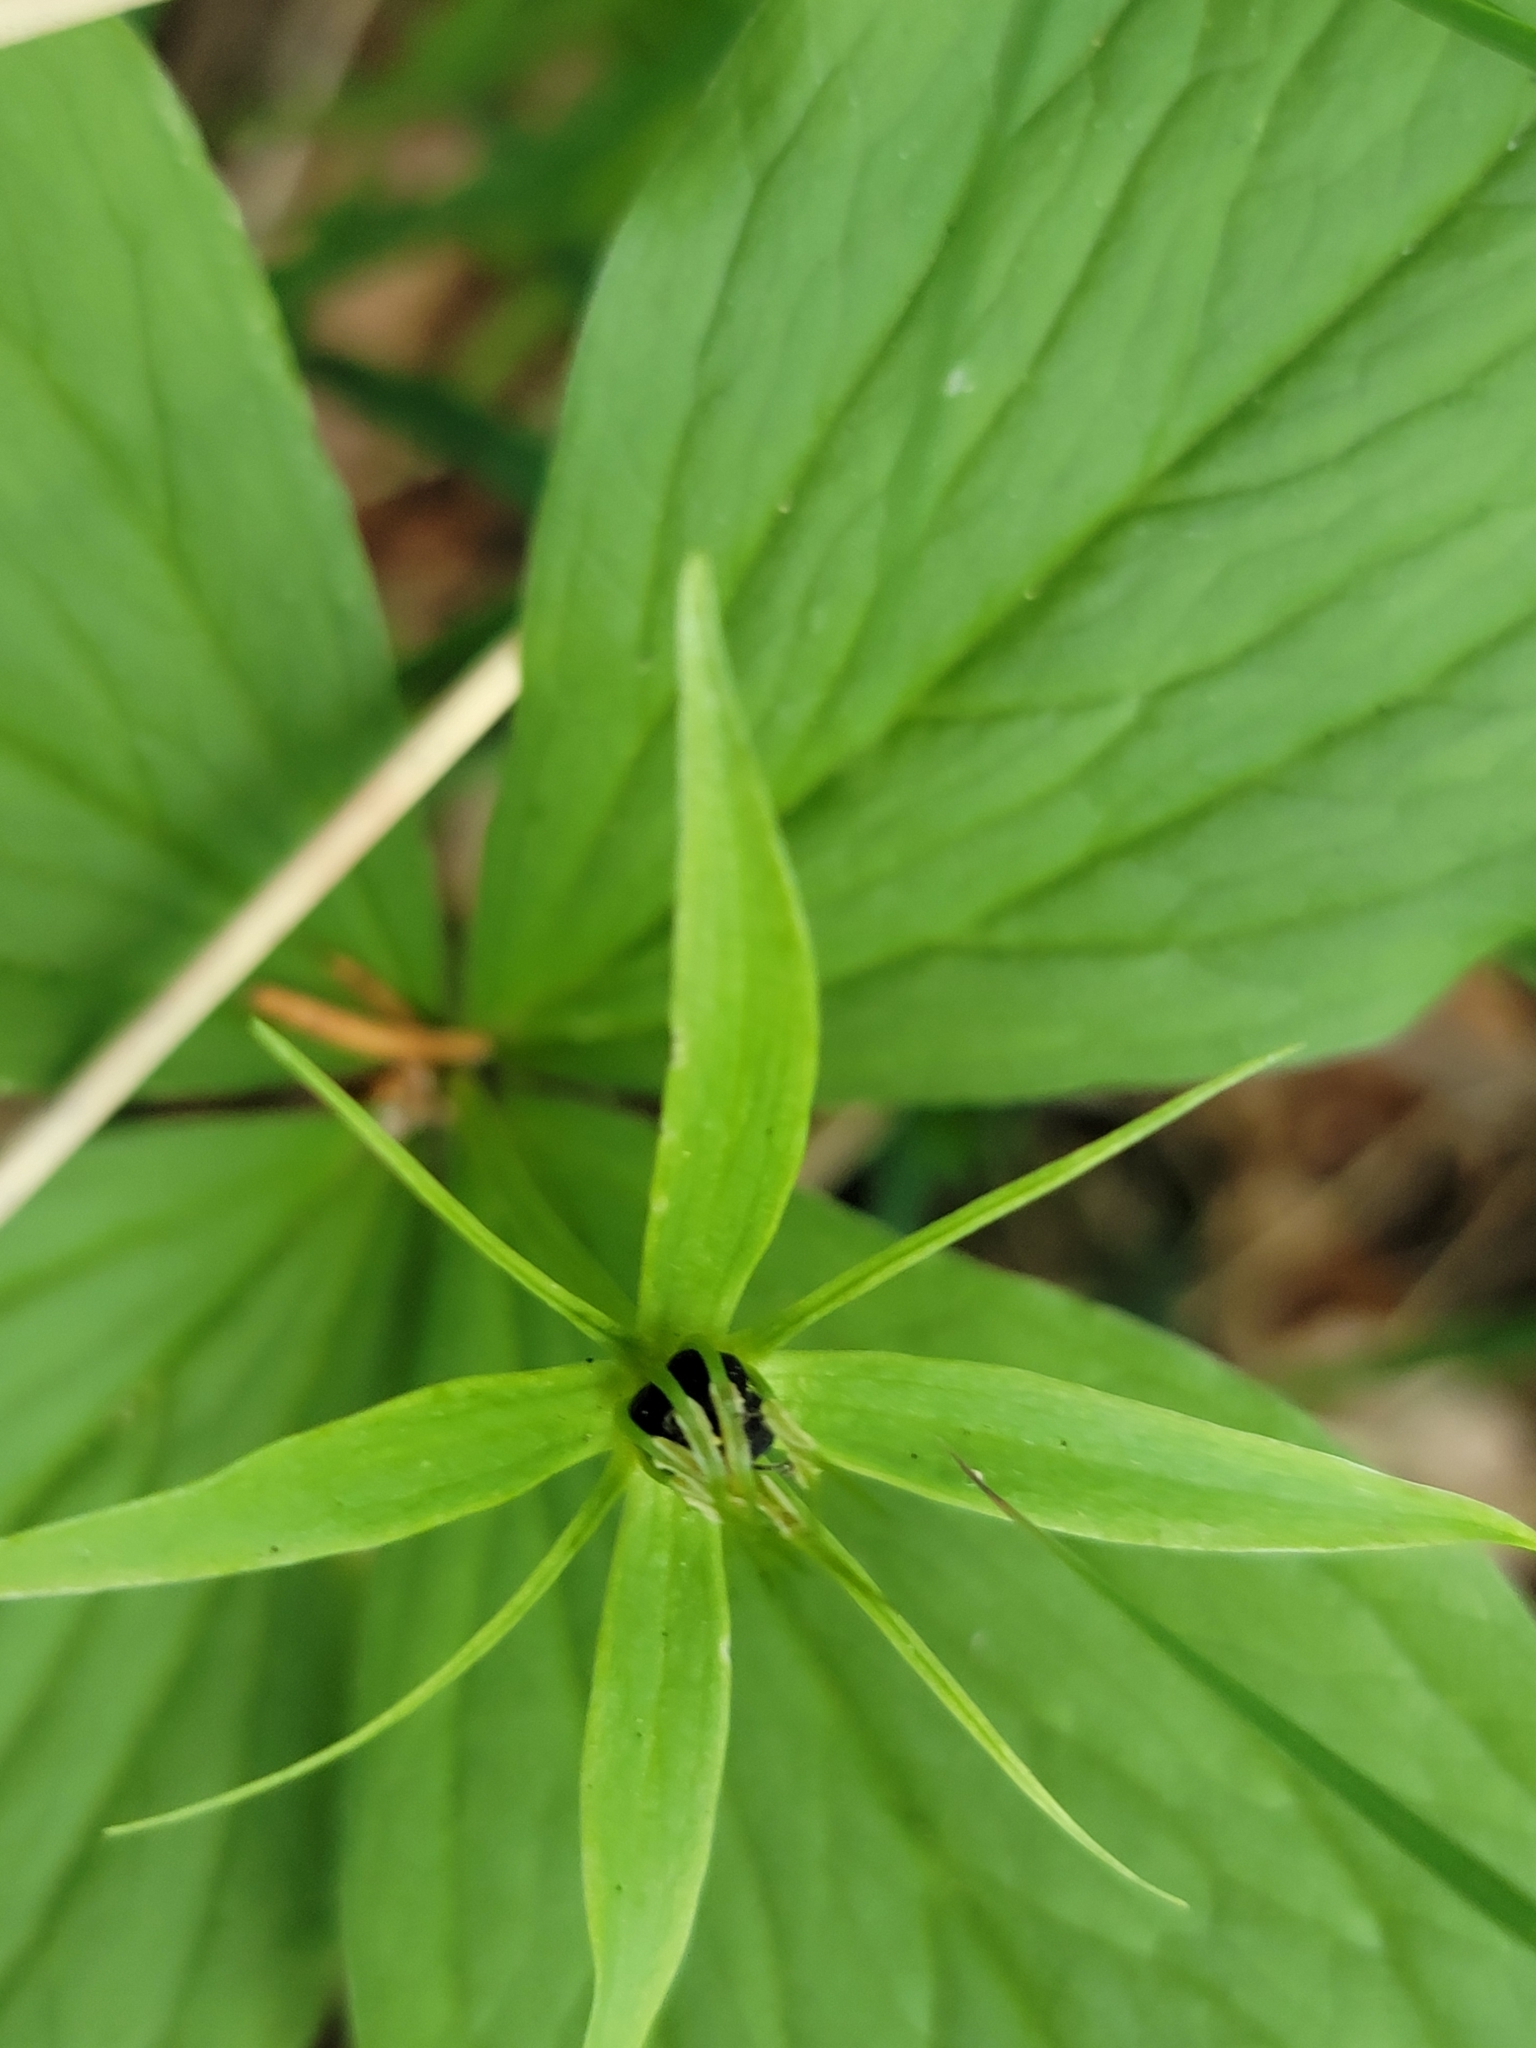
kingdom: Plantae
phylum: Tracheophyta
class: Liliopsida
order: Liliales
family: Melanthiaceae
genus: Paris
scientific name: Paris quadrifolia
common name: Herb-paris
